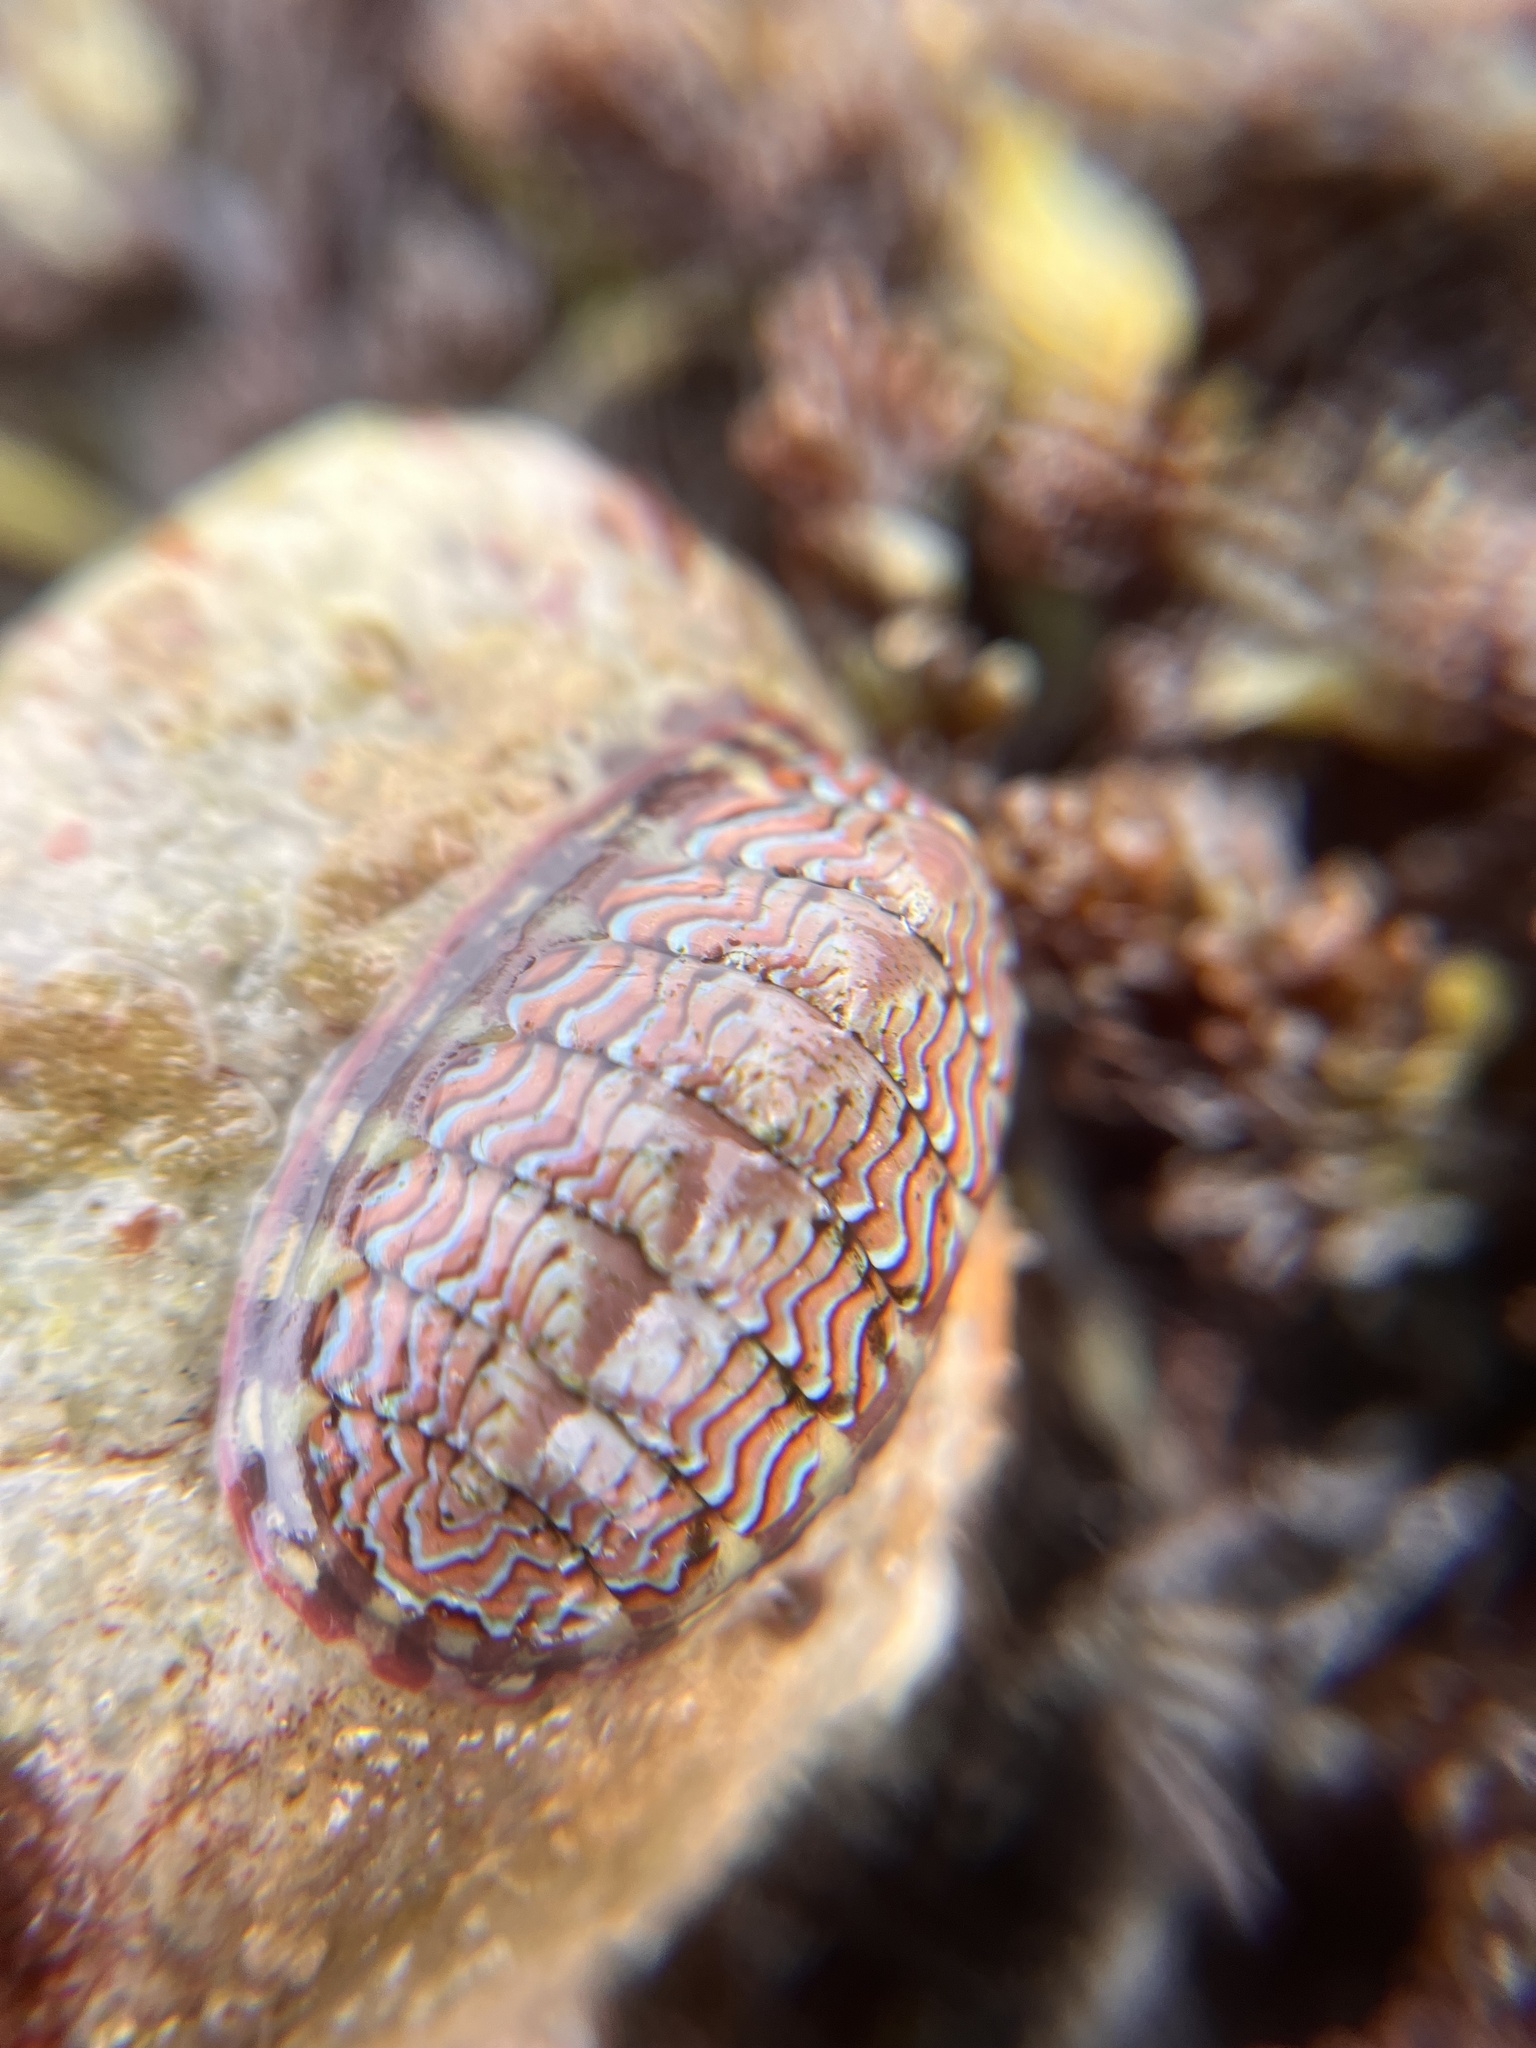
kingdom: Animalia
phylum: Mollusca
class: Polyplacophora
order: Chitonida
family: Tonicellidae
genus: Tonicella
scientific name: Tonicella lokii
